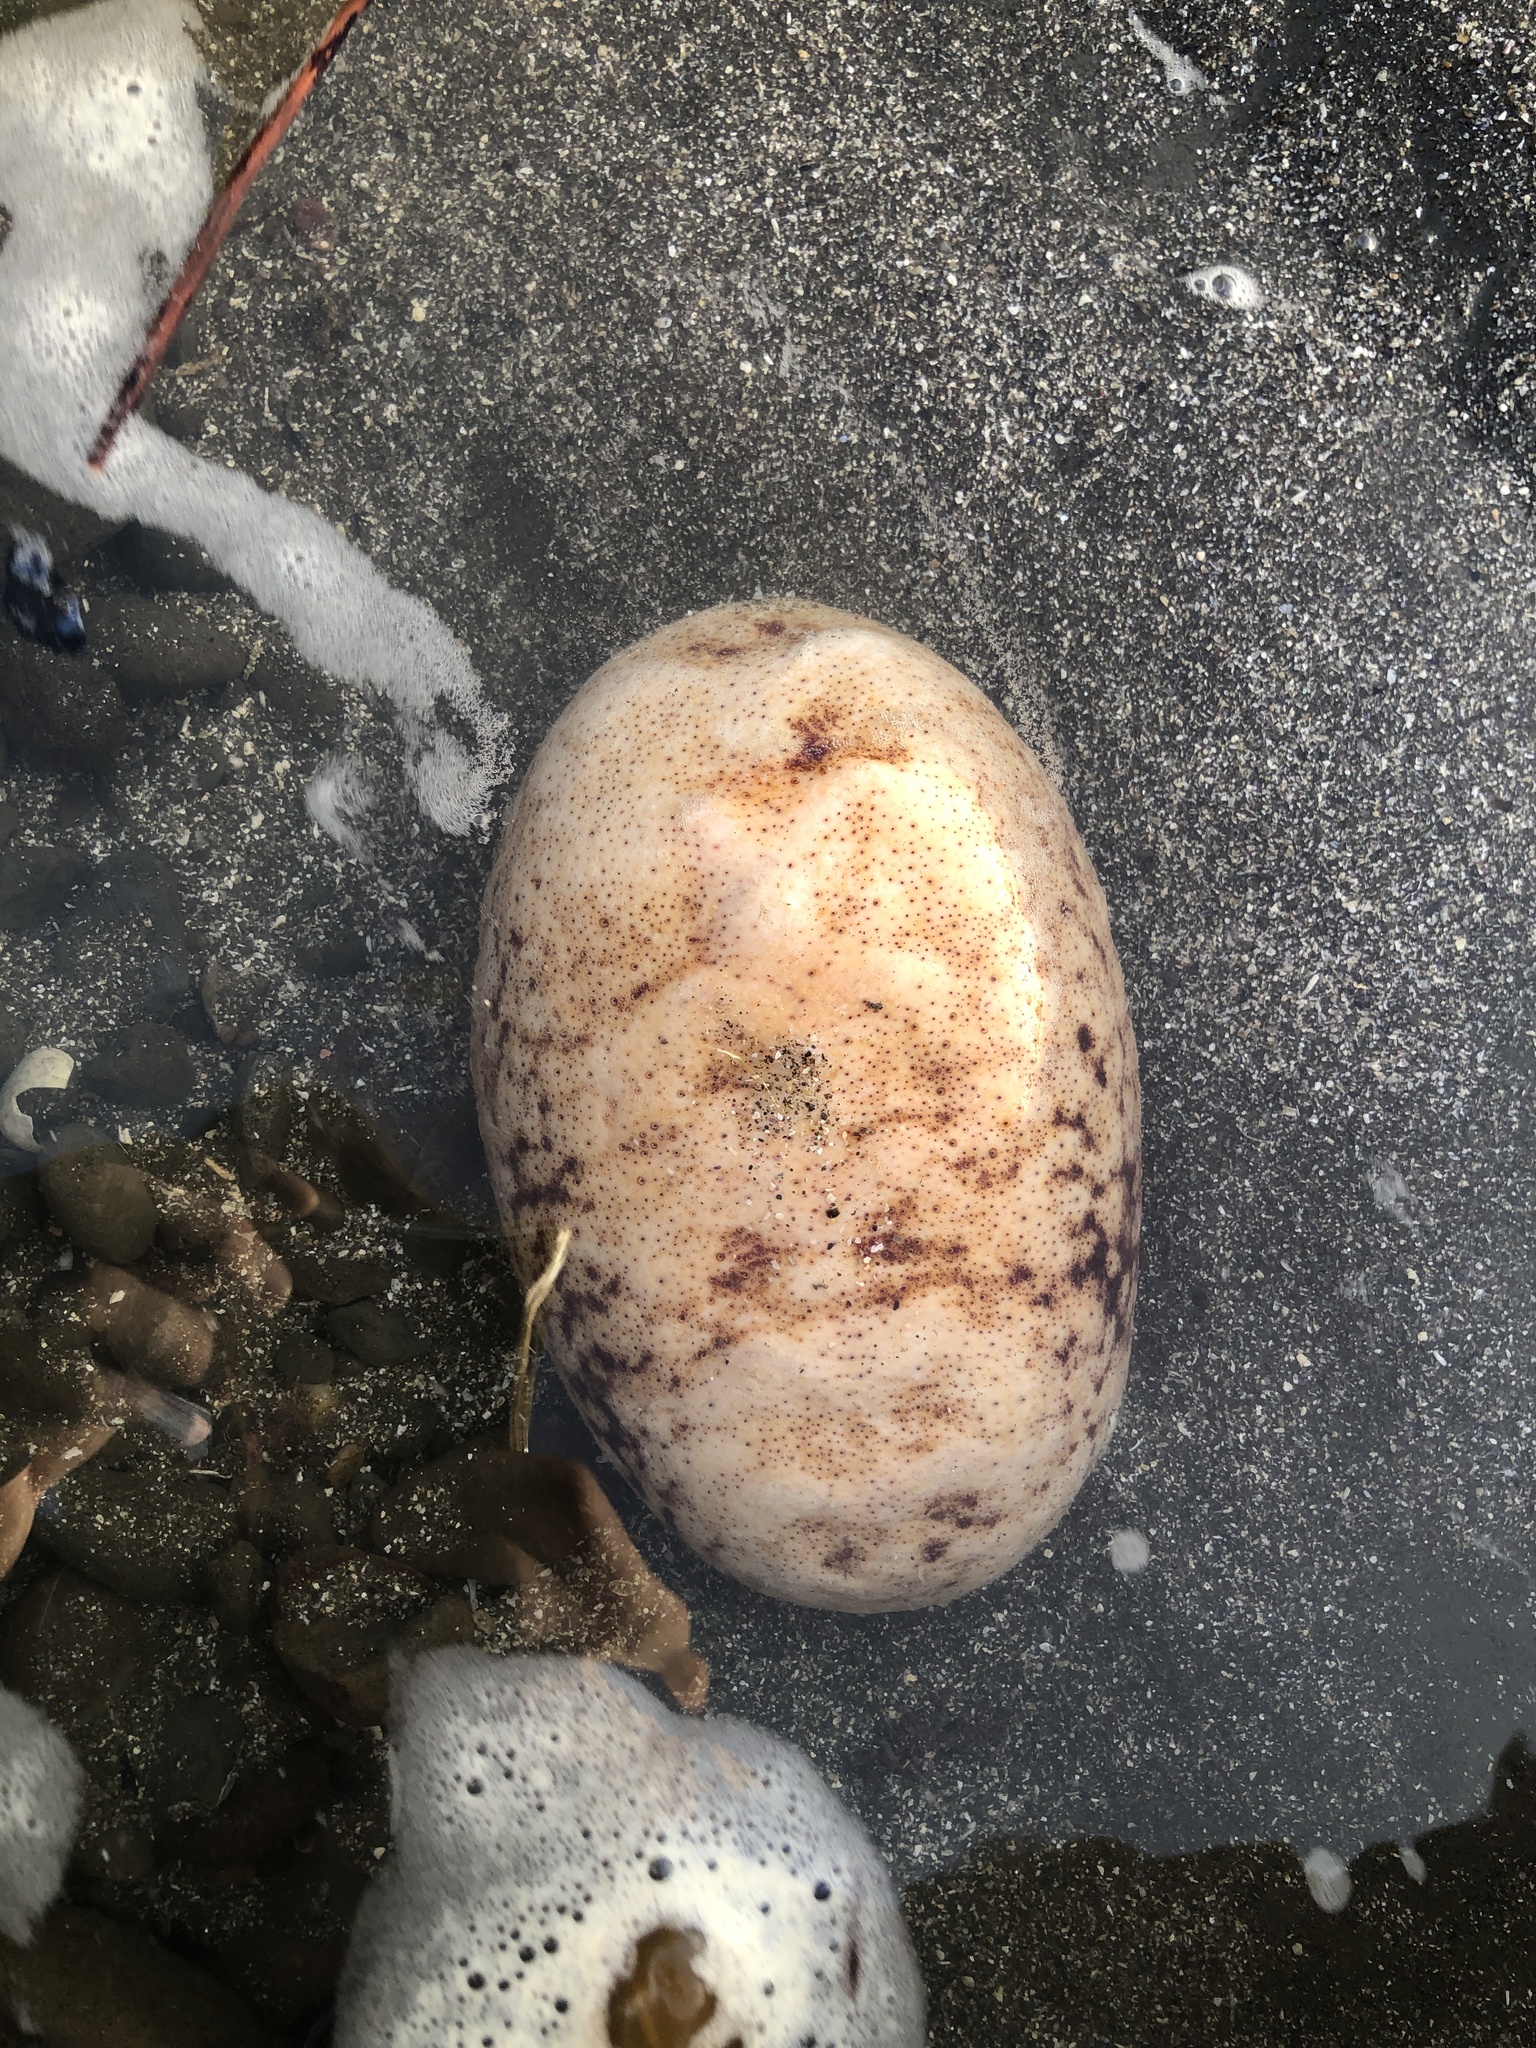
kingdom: Animalia
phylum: Mollusca
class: Polyplacophora
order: Chitonida
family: Acanthochitonidae
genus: Cryptochiton
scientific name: Cryptochiton stelleri
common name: Giant pacific chiton
